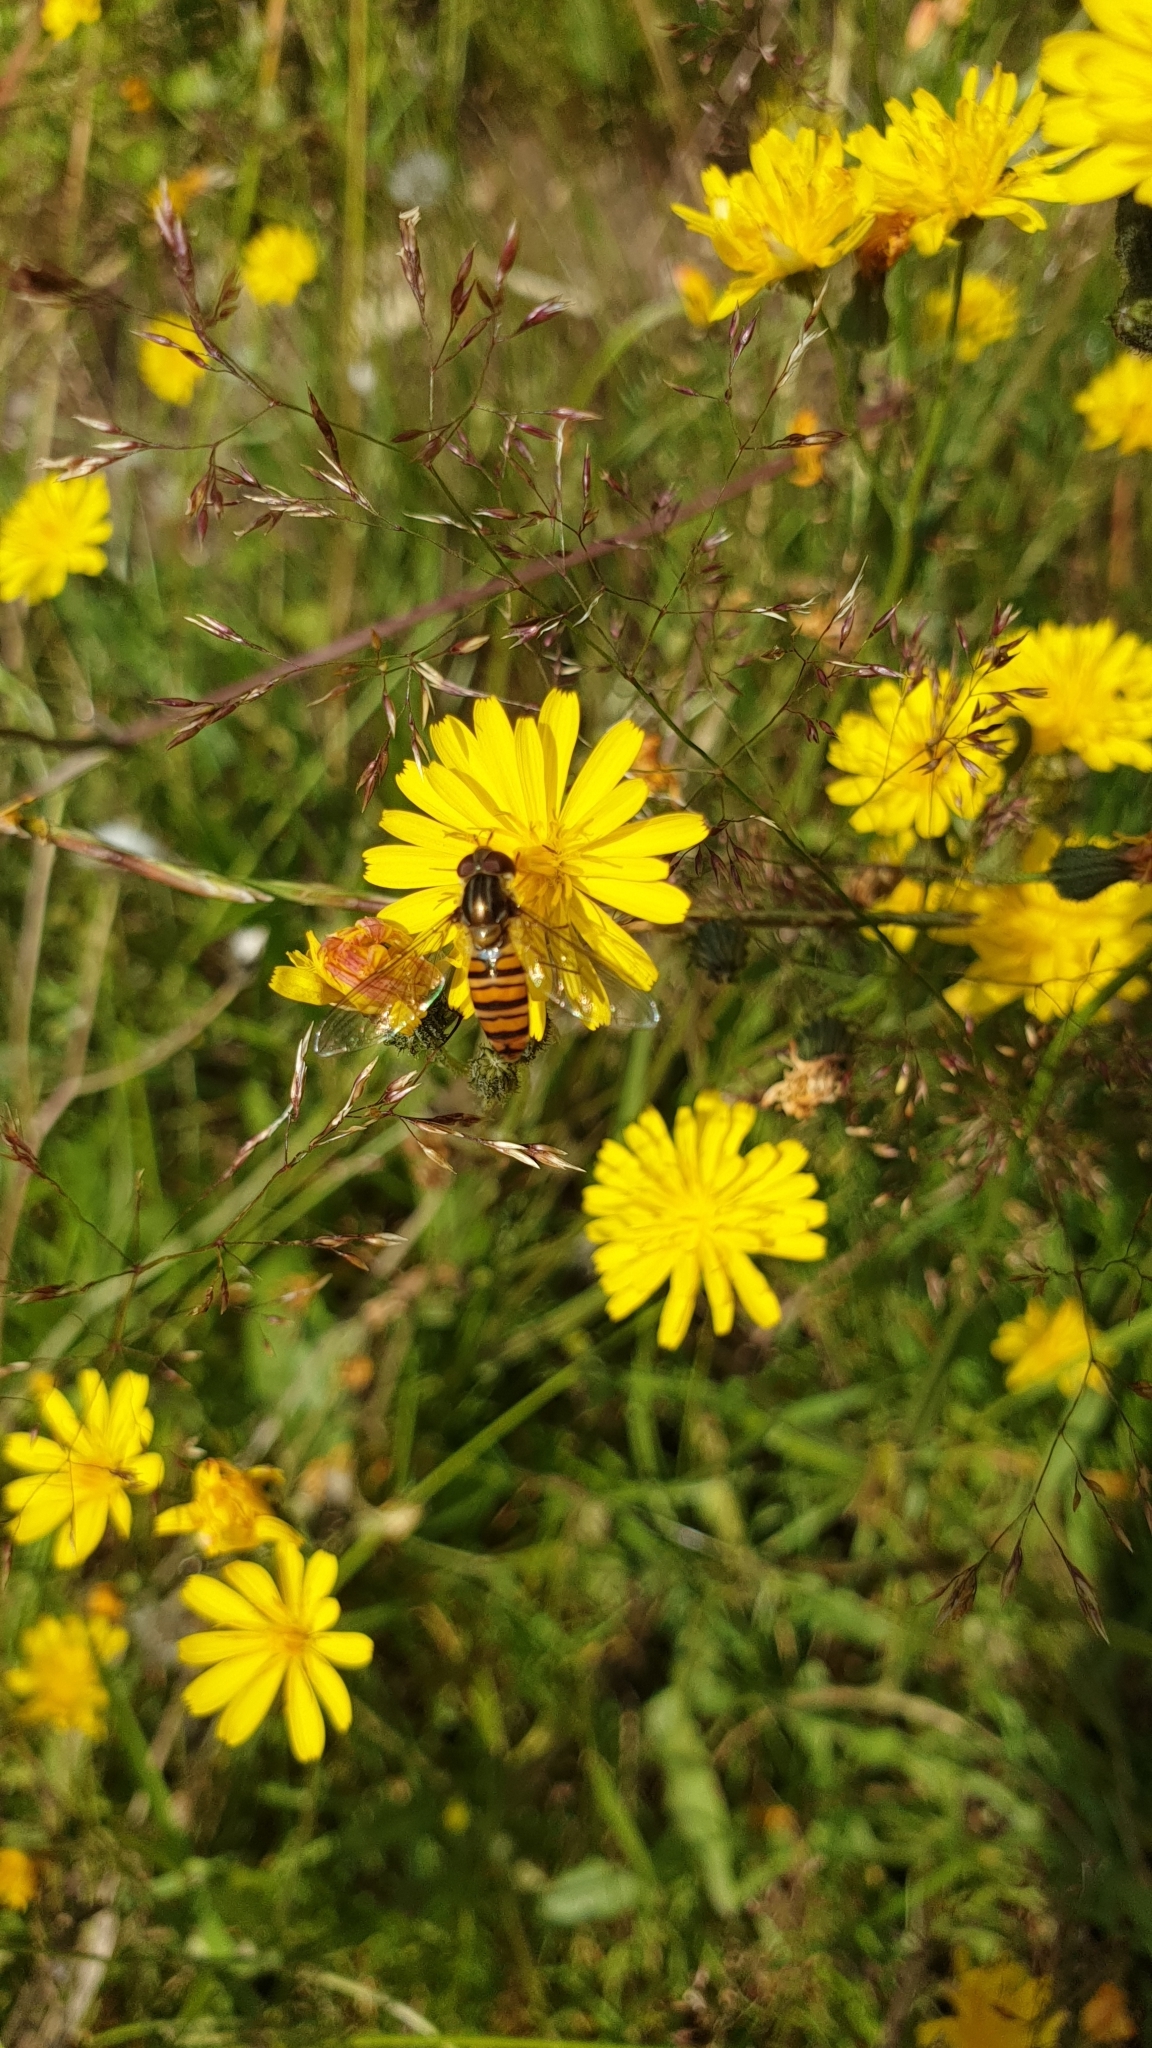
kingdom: Animalia
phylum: Arthropoda
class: Insecta
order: Diptera
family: Syrphidae
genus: Episyrphus
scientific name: Episyrphus balteatus
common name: Marmalade hoverfly
